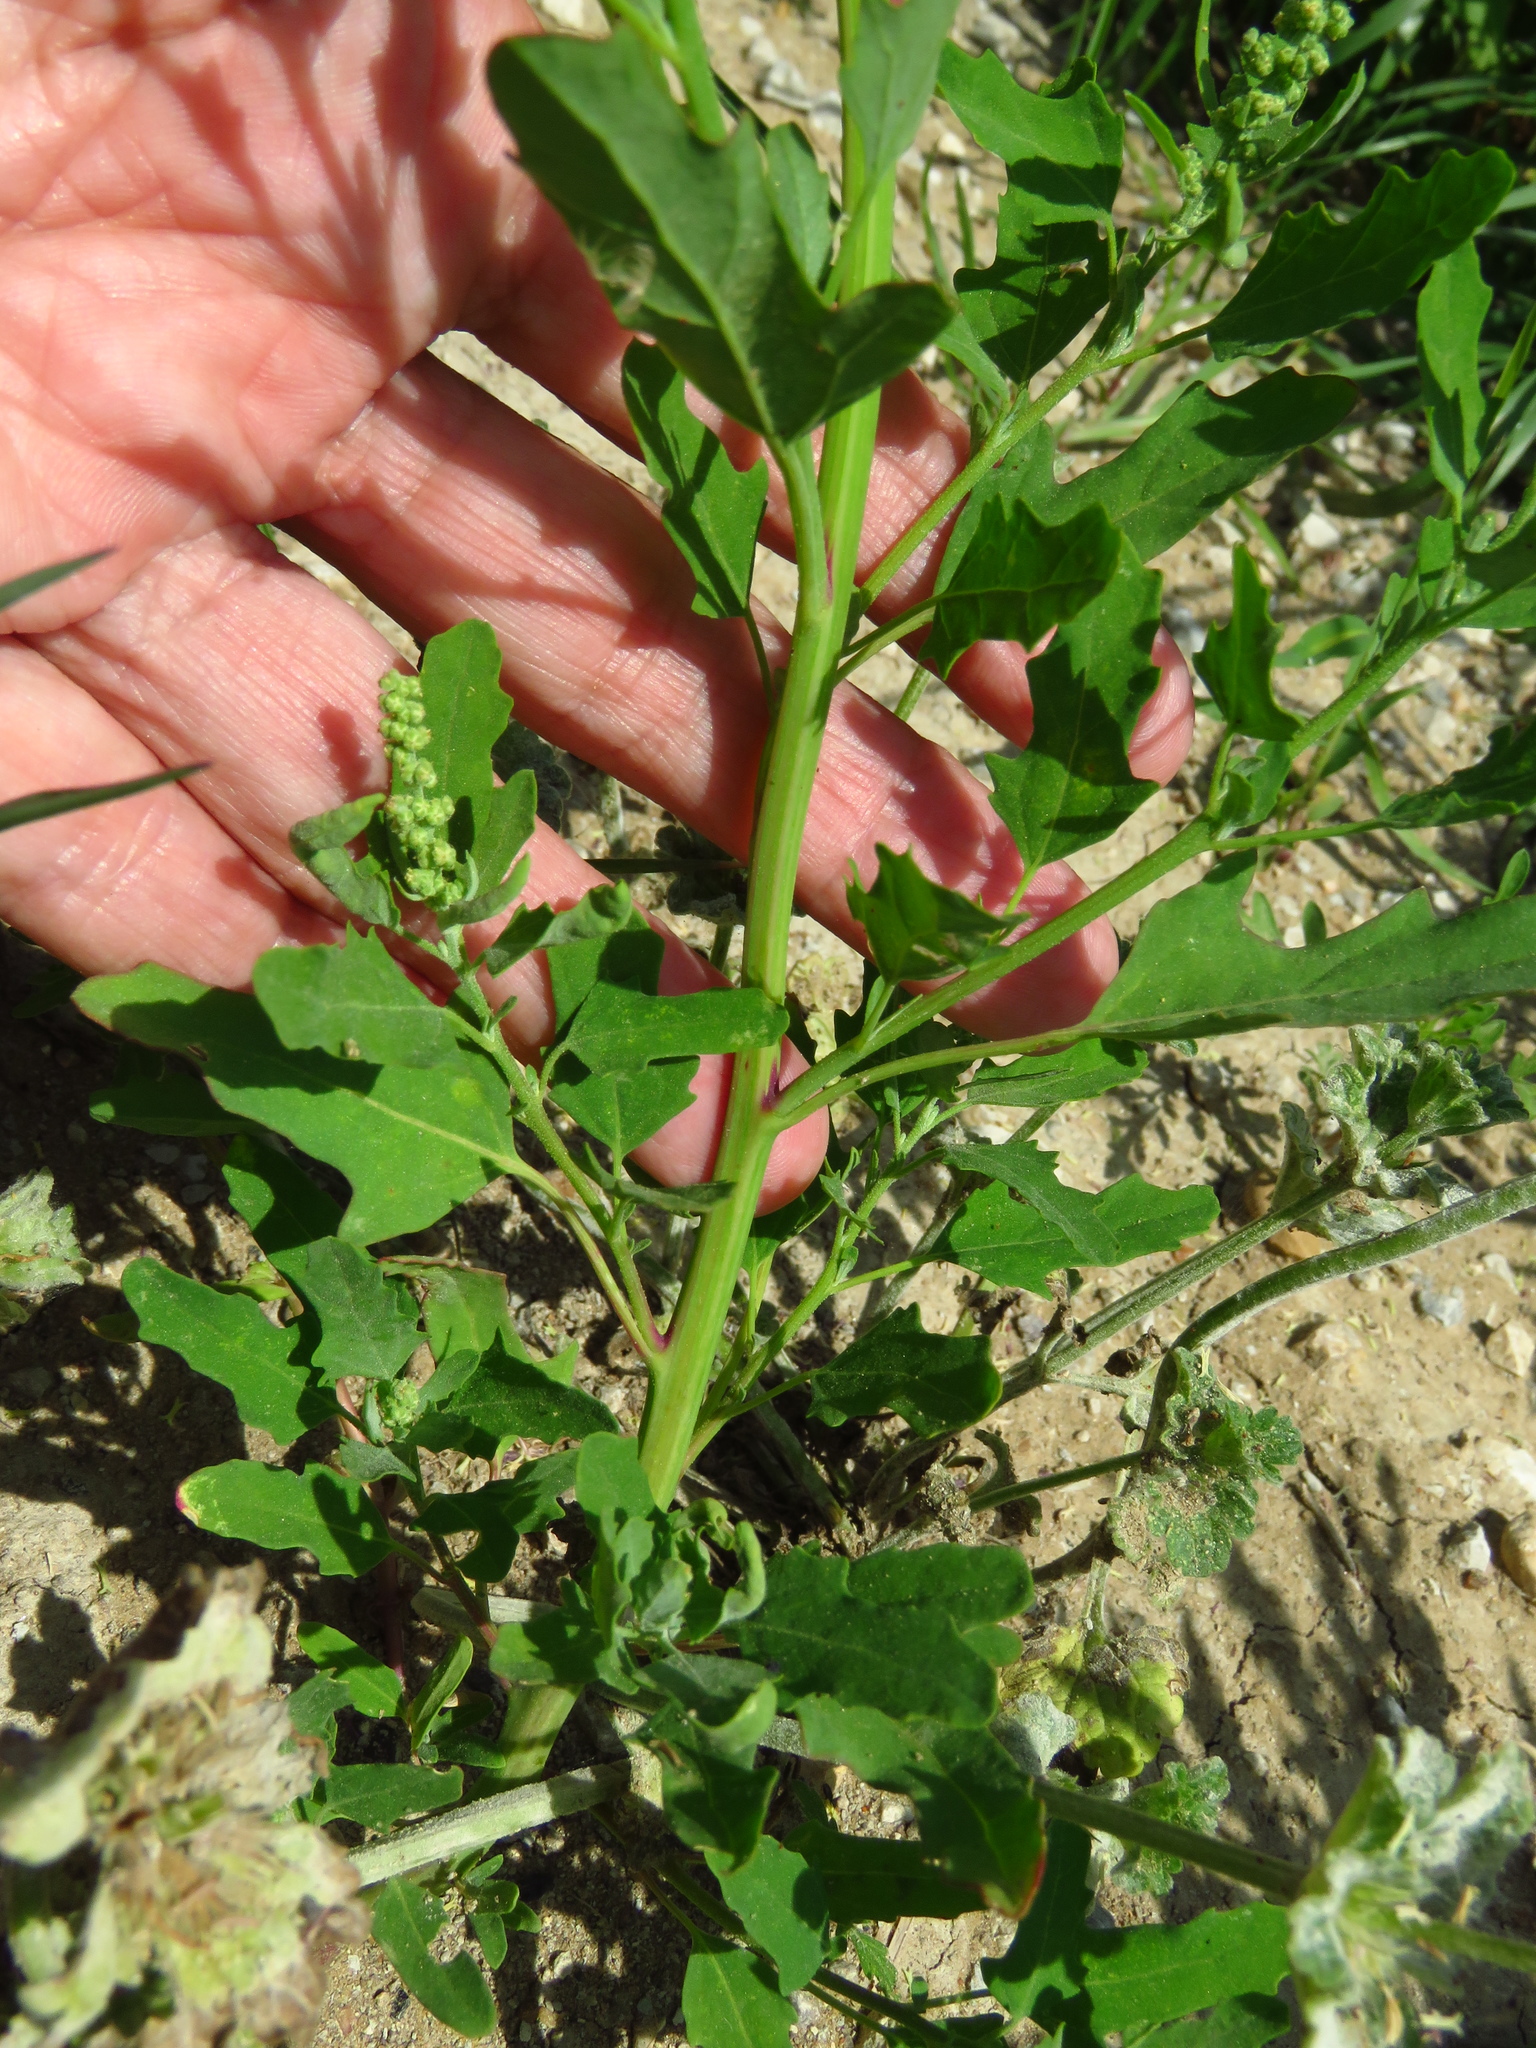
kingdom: Plantae
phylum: Tracheophyta
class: Magnoliopsida
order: Caryophyllales
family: Amaranthaceae
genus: Chenopodium
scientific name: Chenopodium album
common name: Fat-hen
